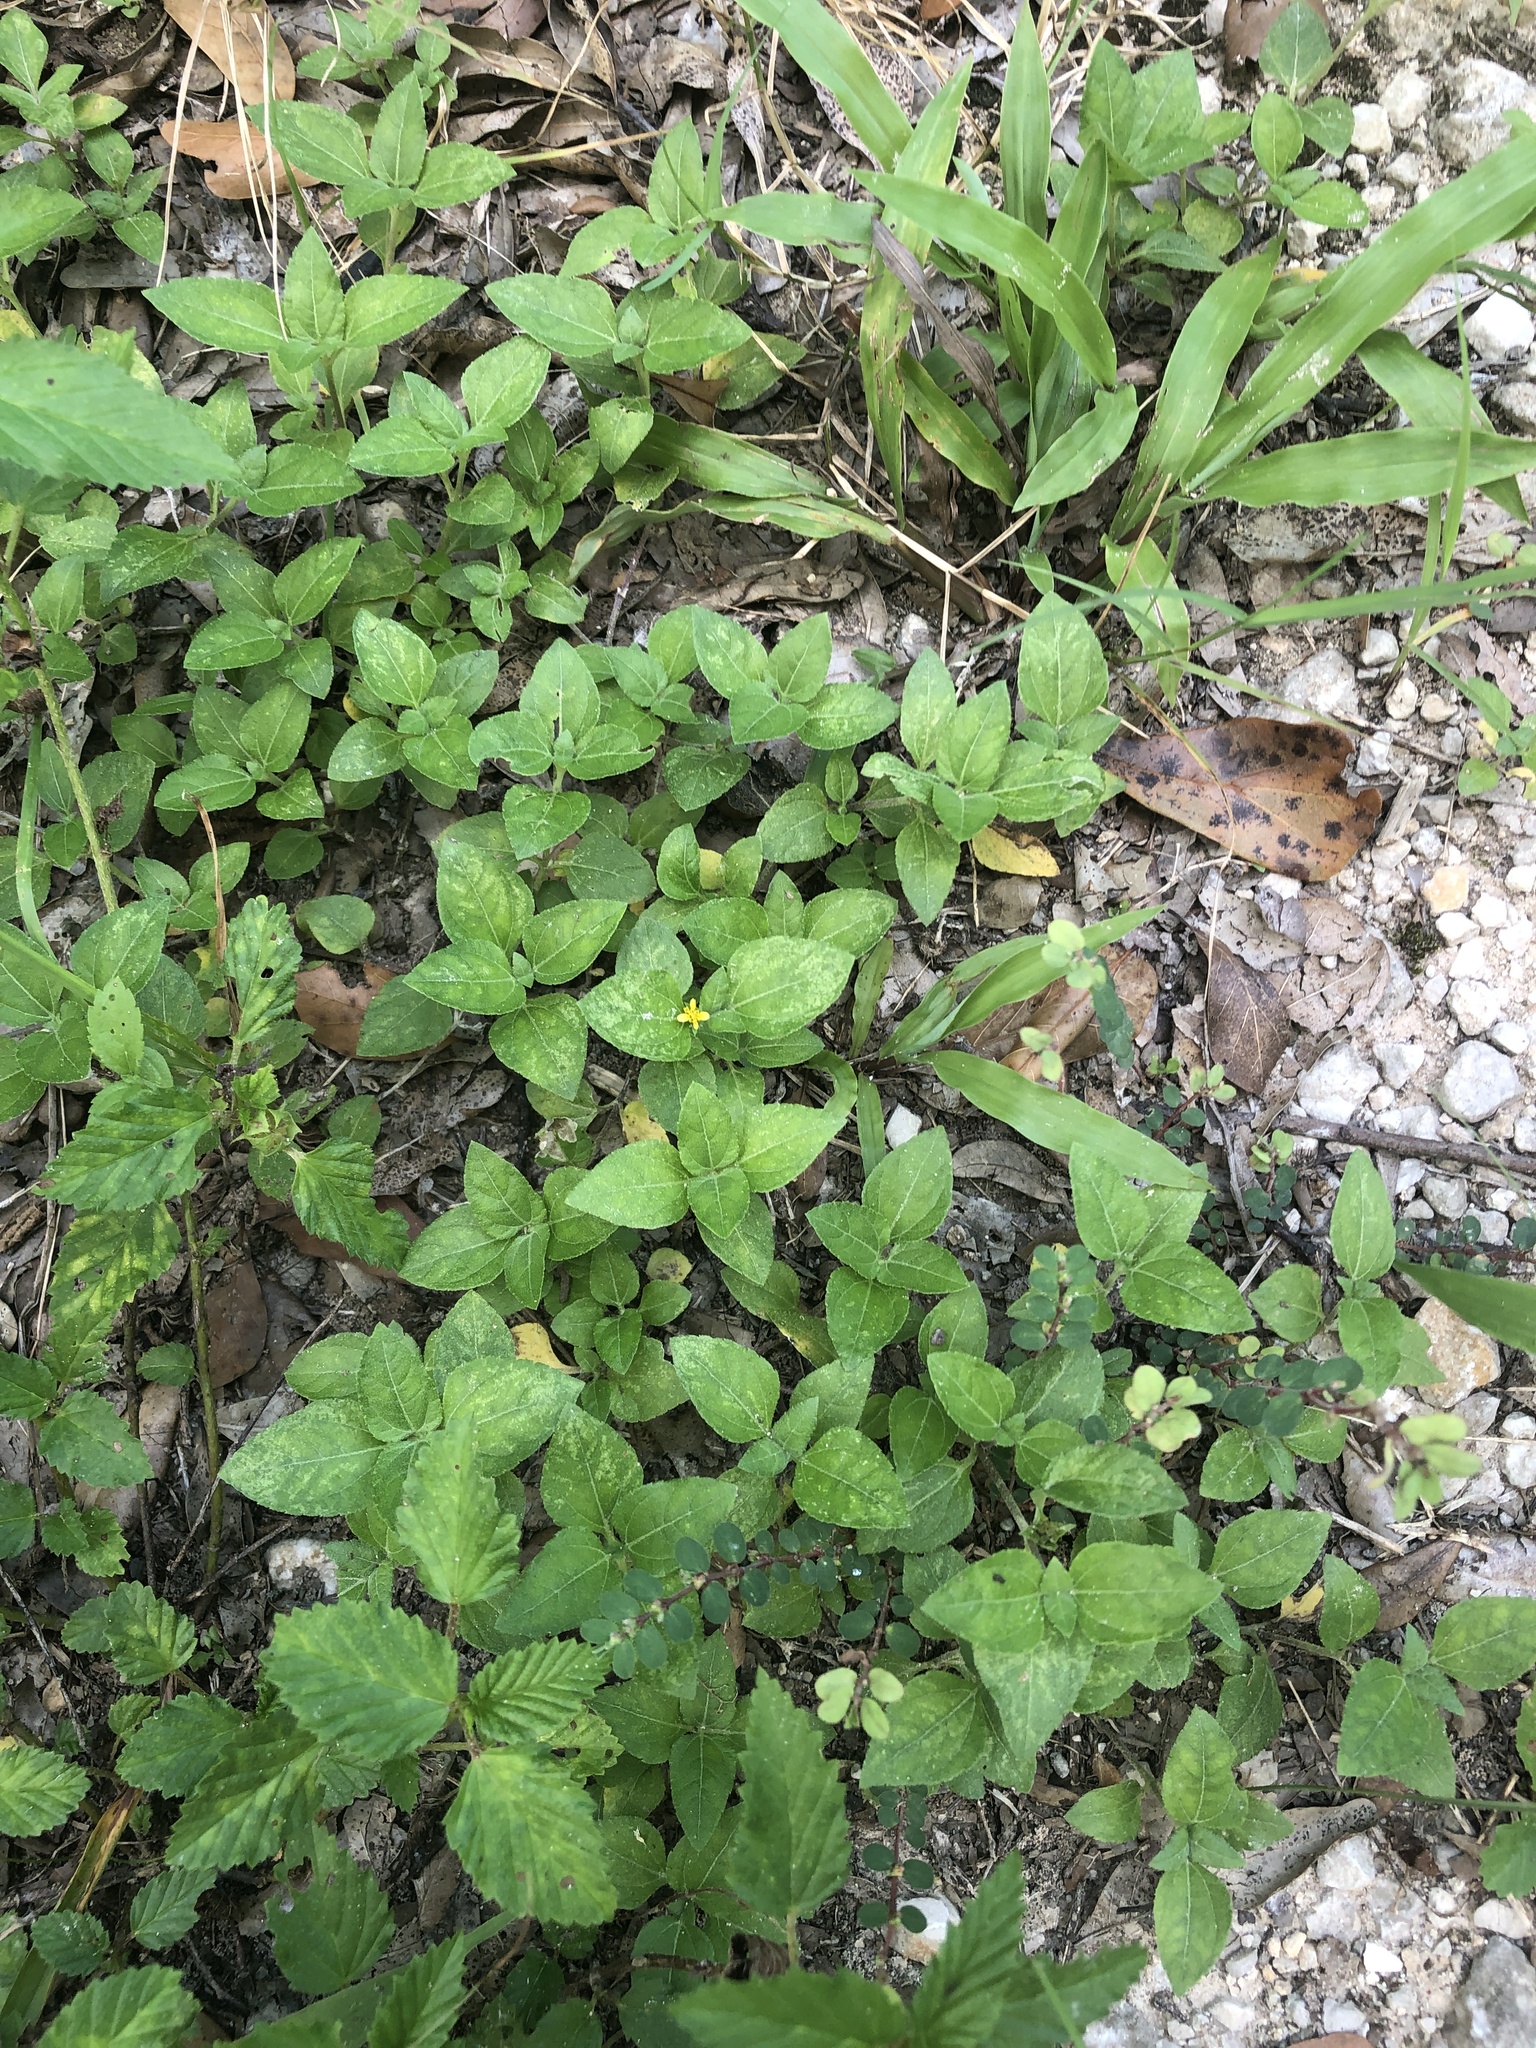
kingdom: Plantae
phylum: Tracheophyta
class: Magnoliopsida
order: Asterales
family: Asteraceae
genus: Calyptocarpus
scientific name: Calyptocarpus vialis
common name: Straggler daisy
